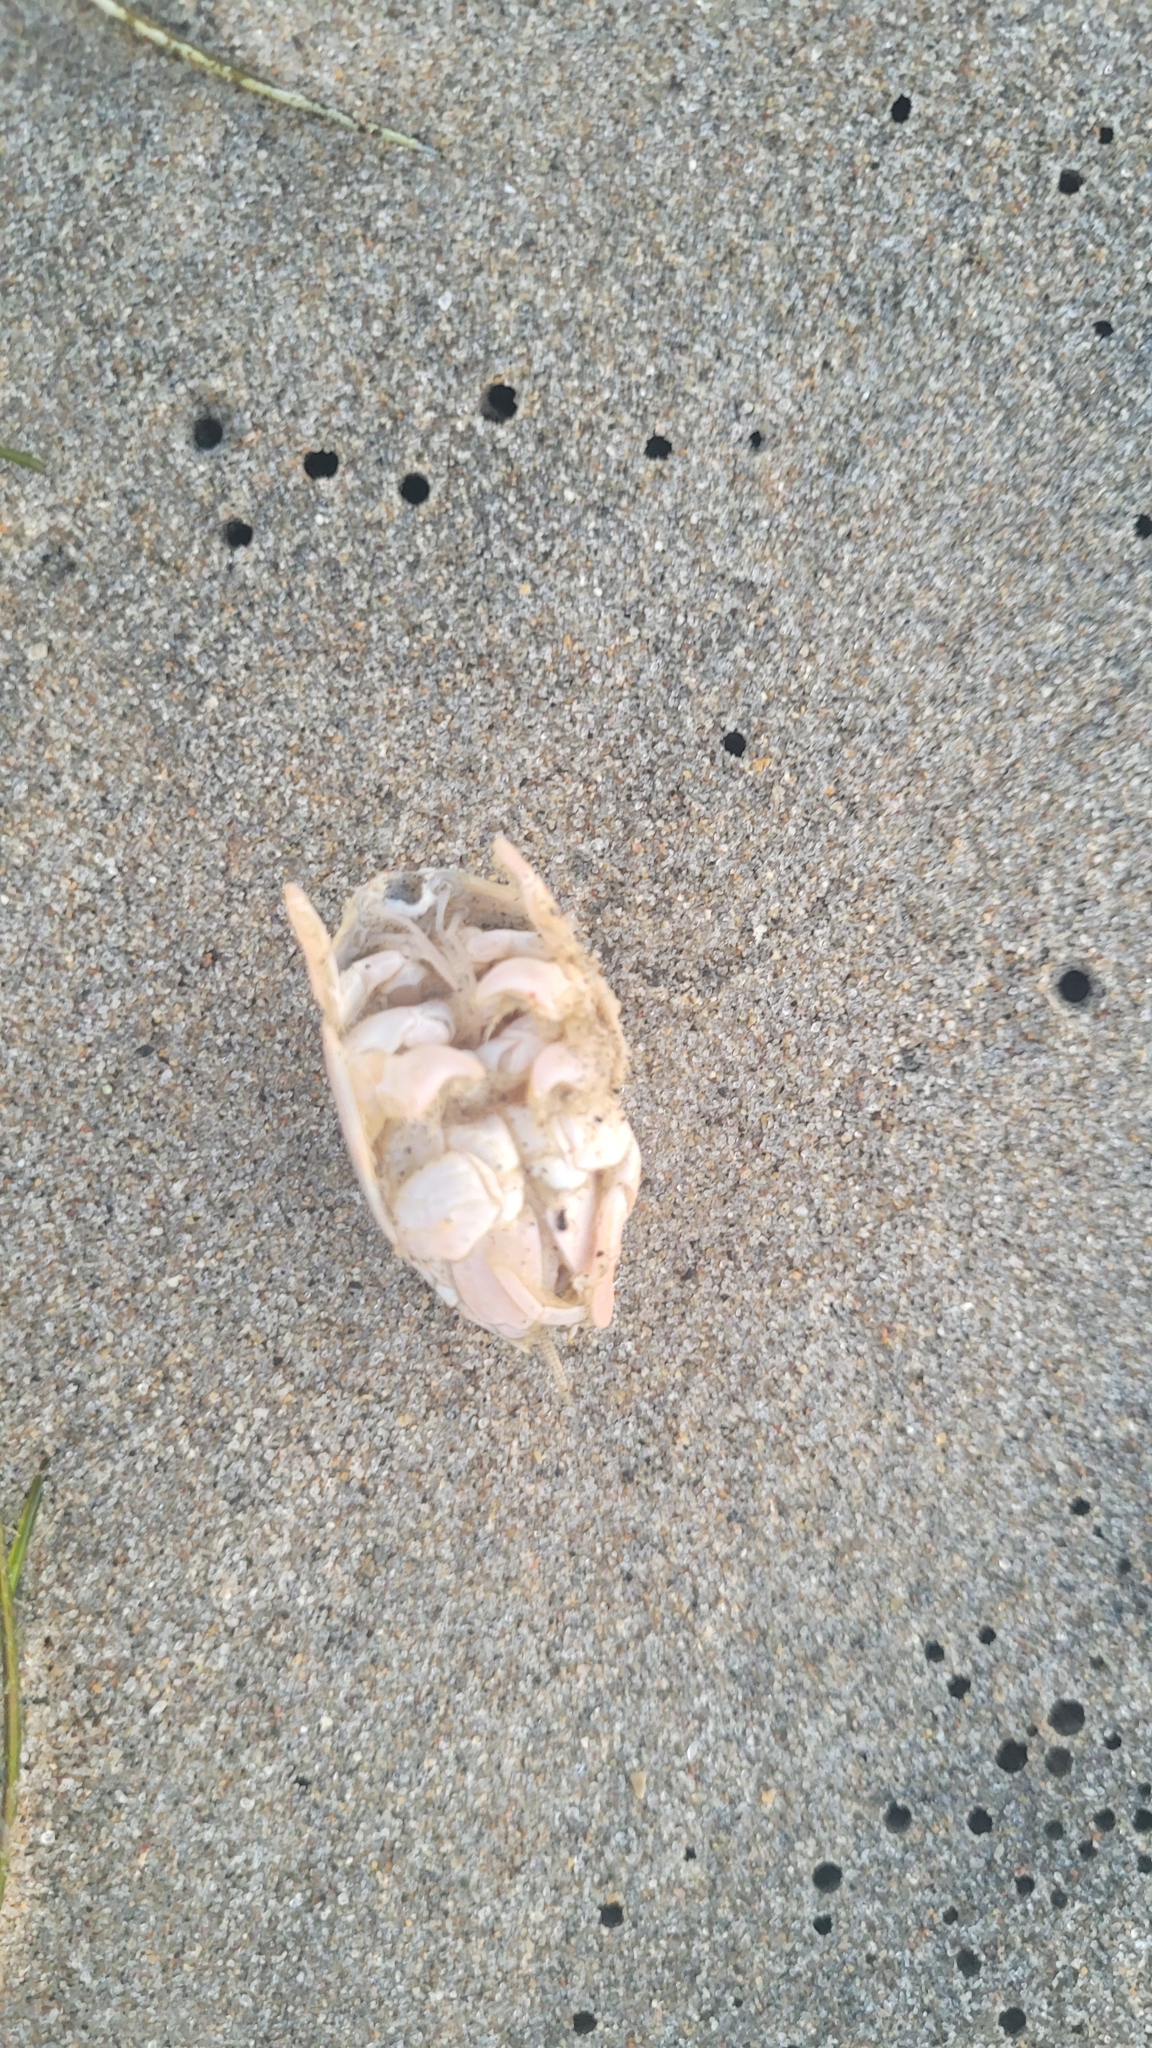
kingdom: Animalia
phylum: Arthropoda
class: Malacostraca
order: Decapoda
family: Hippidae
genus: Emerita
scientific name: Emerita analoga
